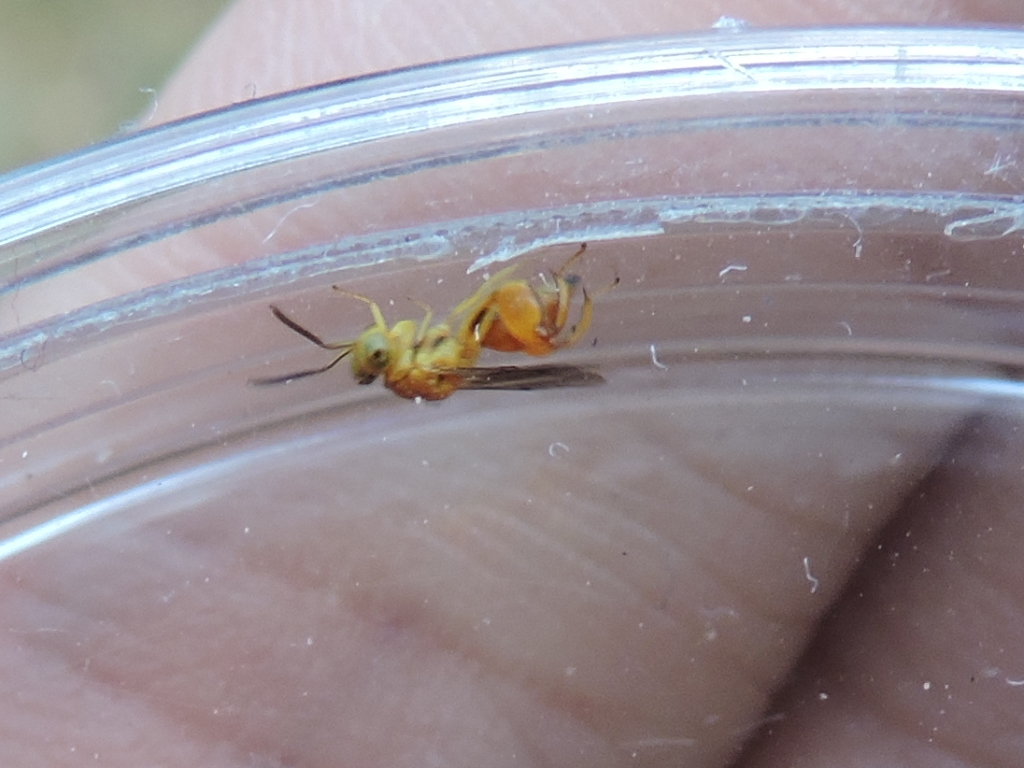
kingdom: Animalia
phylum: Arthropoda
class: Insecta
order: Hymenoptera
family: Chalcididae
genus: Conura
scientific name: Conura
